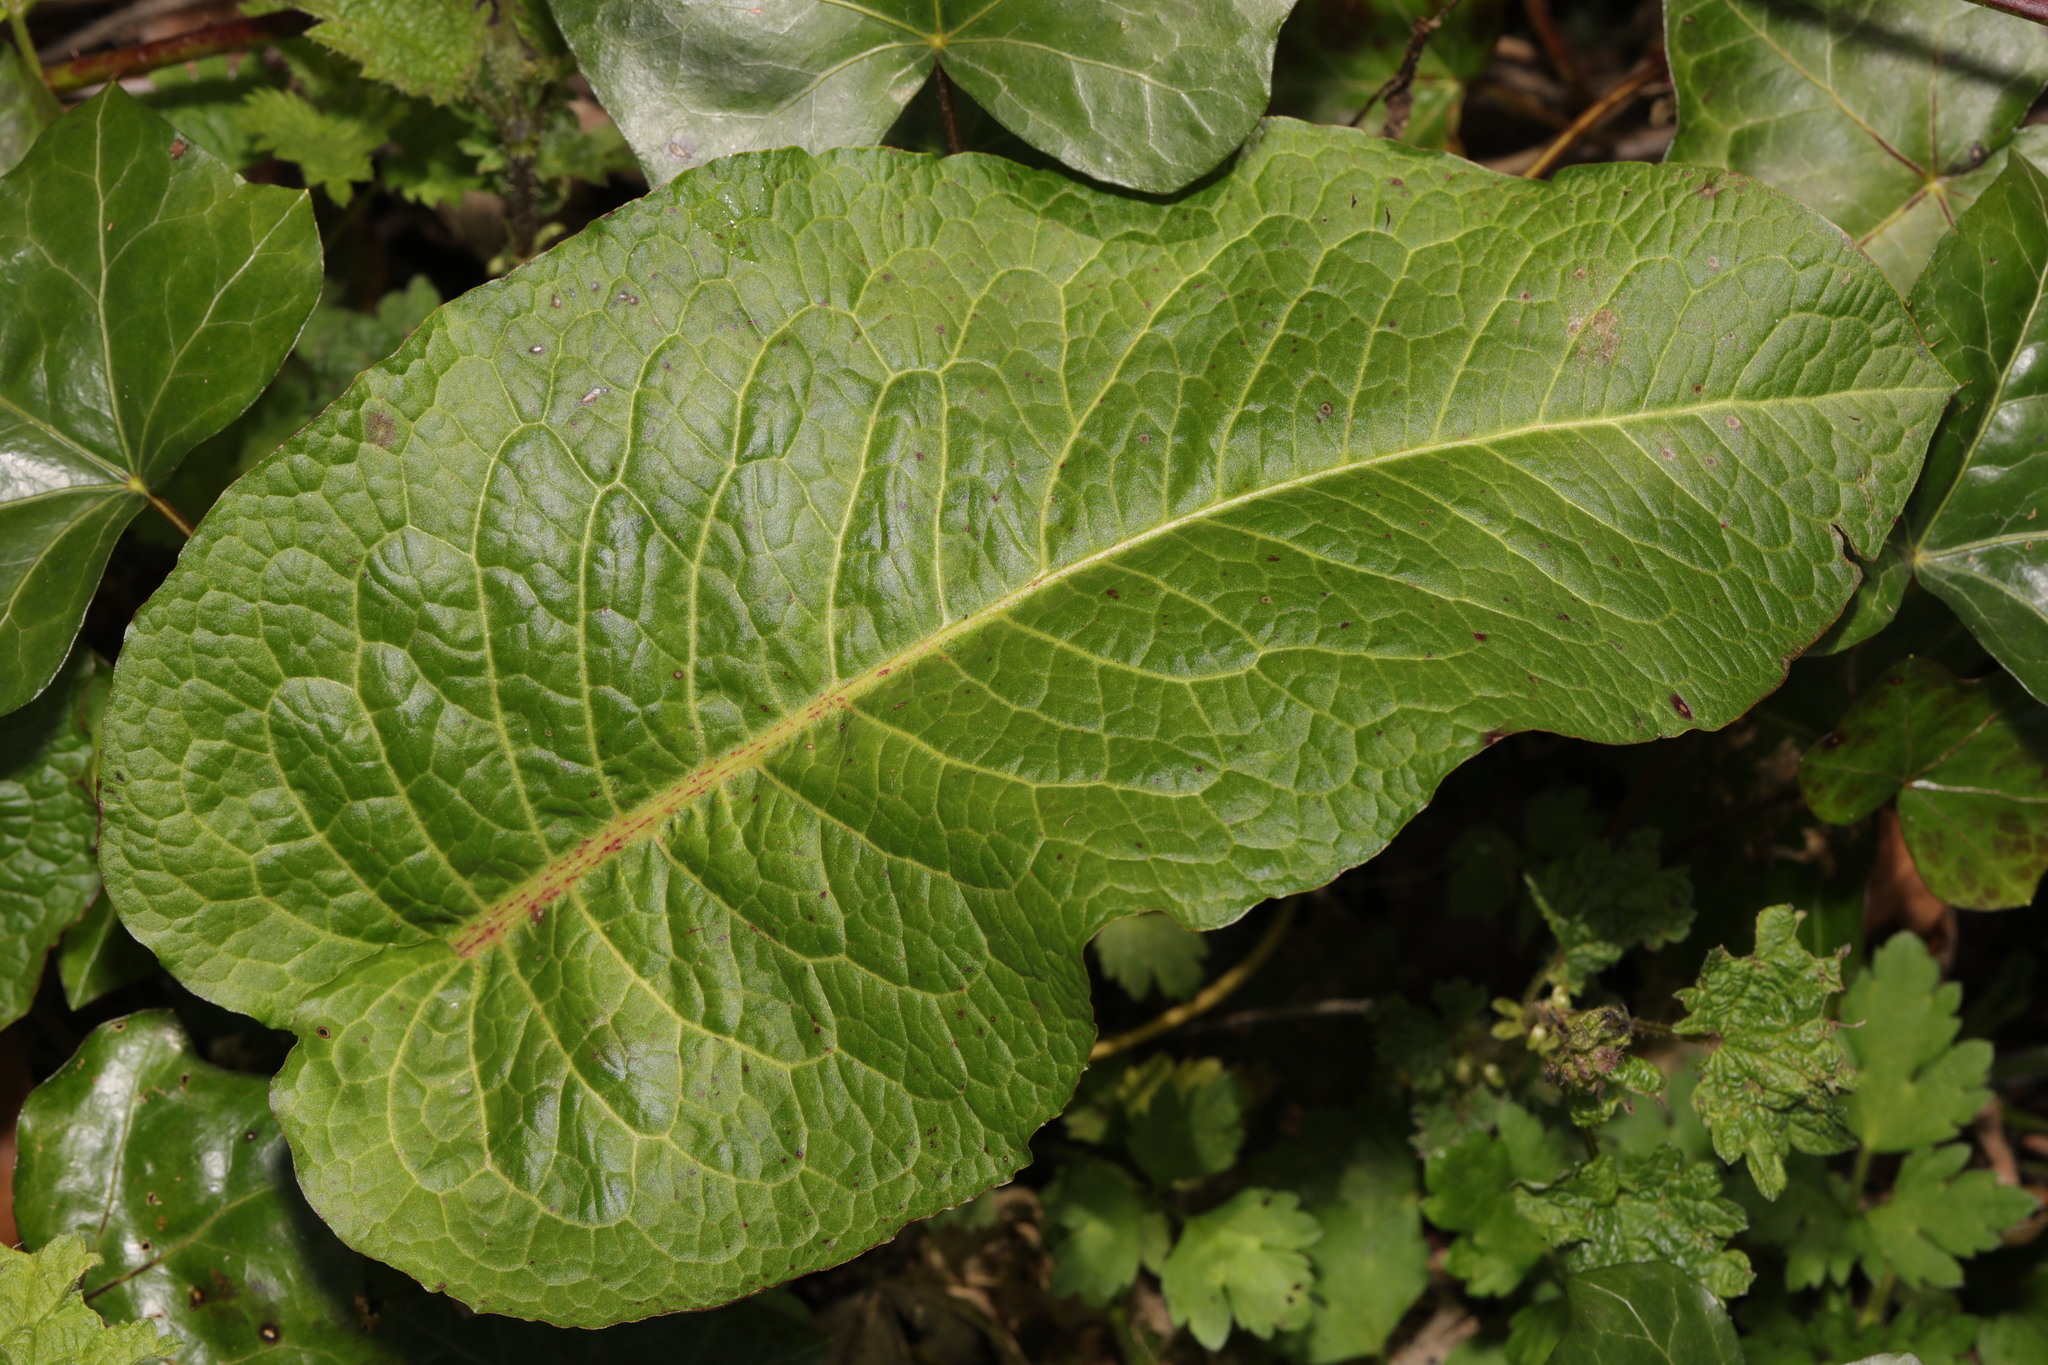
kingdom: Plantae
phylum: Tracheophyta
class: Magnoliopsida
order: Caryophyllales
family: Polygonaceae
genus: Rumex
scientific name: Rumex obtusifolius
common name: Bitter dock
